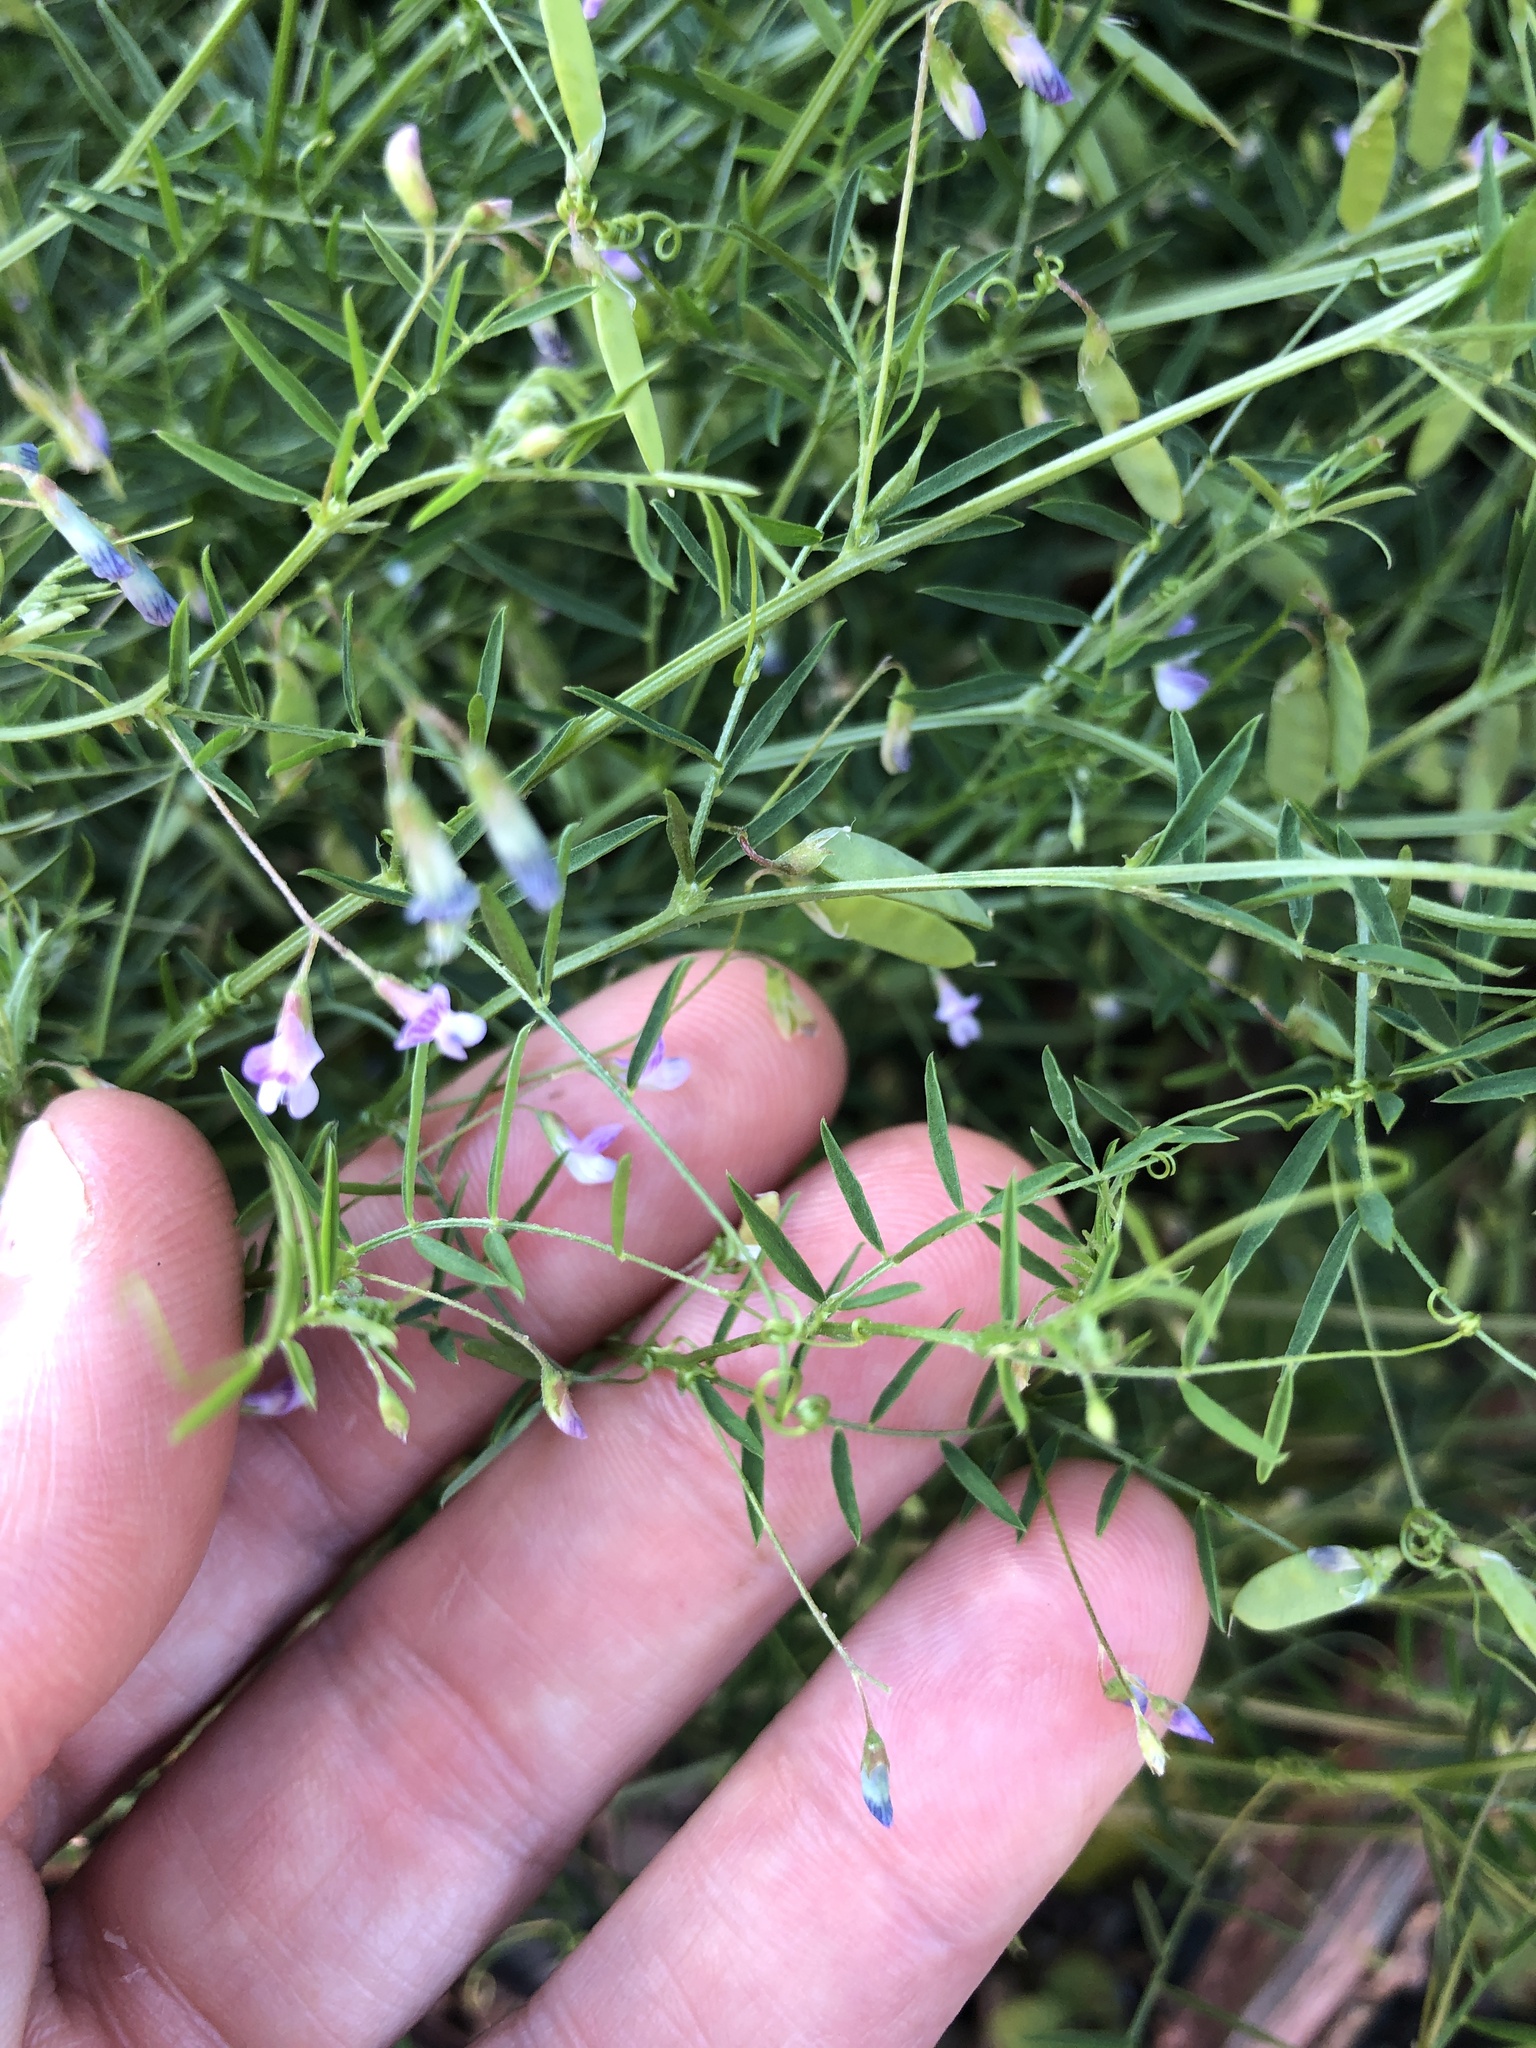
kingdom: Plantae
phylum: Tracheophyta
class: Magnoliopsida
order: Fabales
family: Fabaceae
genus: Vicia
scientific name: Vicia tetrasperma
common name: Smooth tare
